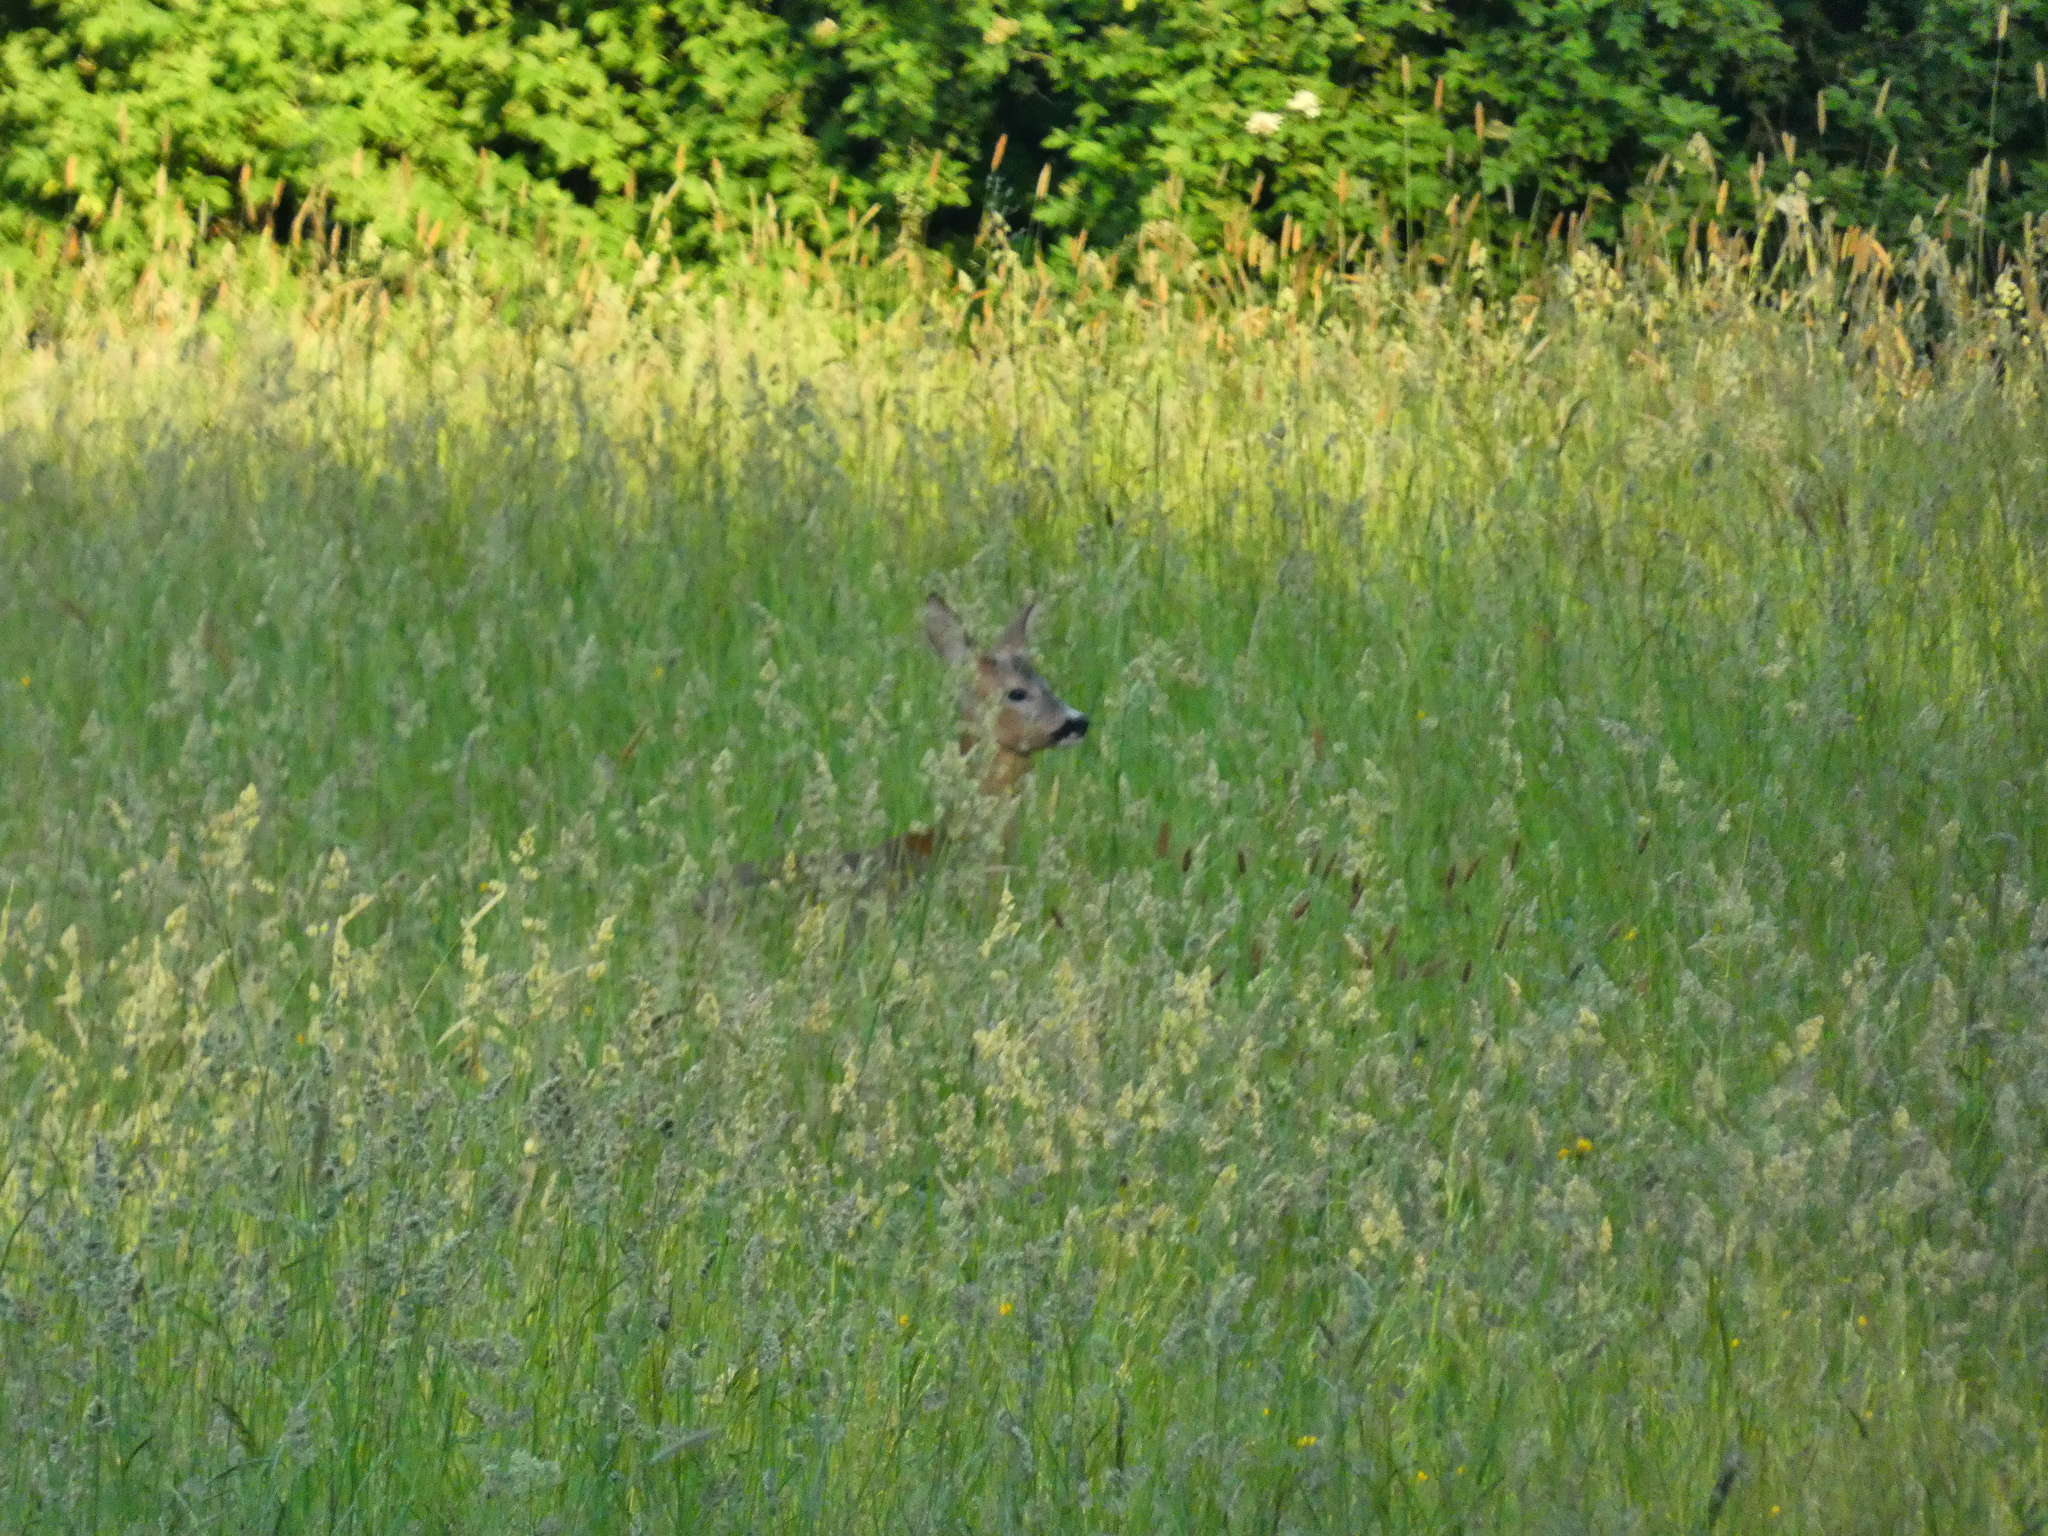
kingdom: Animalia
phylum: Chordata
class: Mammalia
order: Artiodactyla
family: Cervidae
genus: Capreolus
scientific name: Capreolus capreolus
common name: Western roe deer
